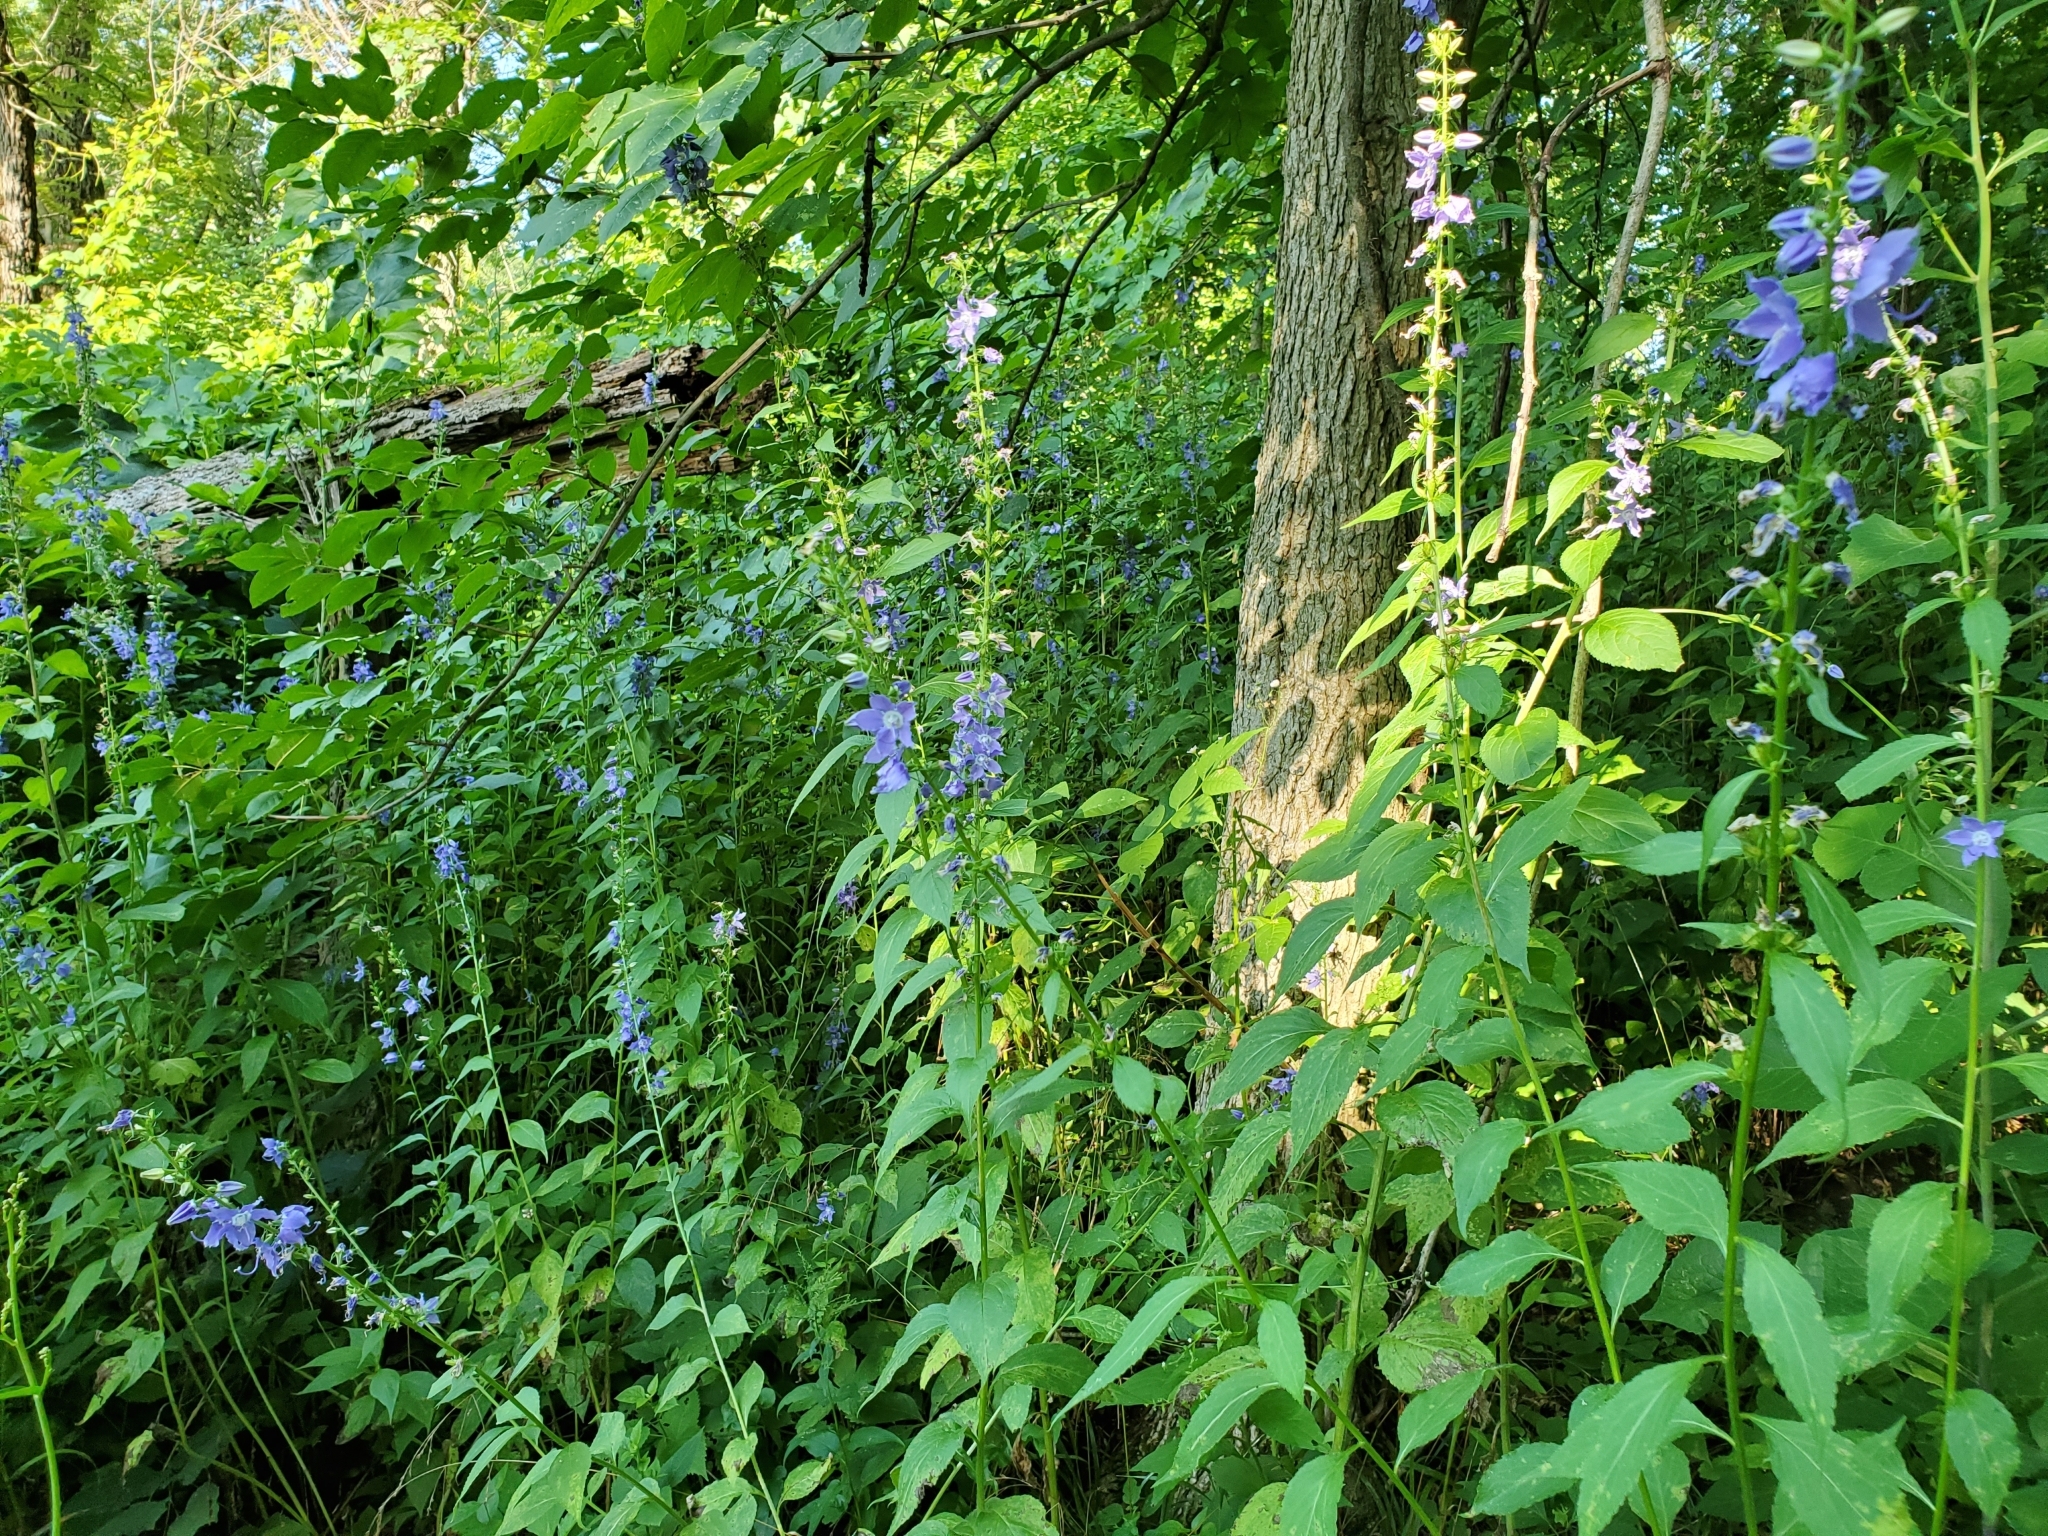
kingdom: Plantae
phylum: Tracheophyta
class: Magnoliopsida
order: Asterales
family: Campanulaceae
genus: Campanulastrum
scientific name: Campanulastrum americanum
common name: American bellflower
